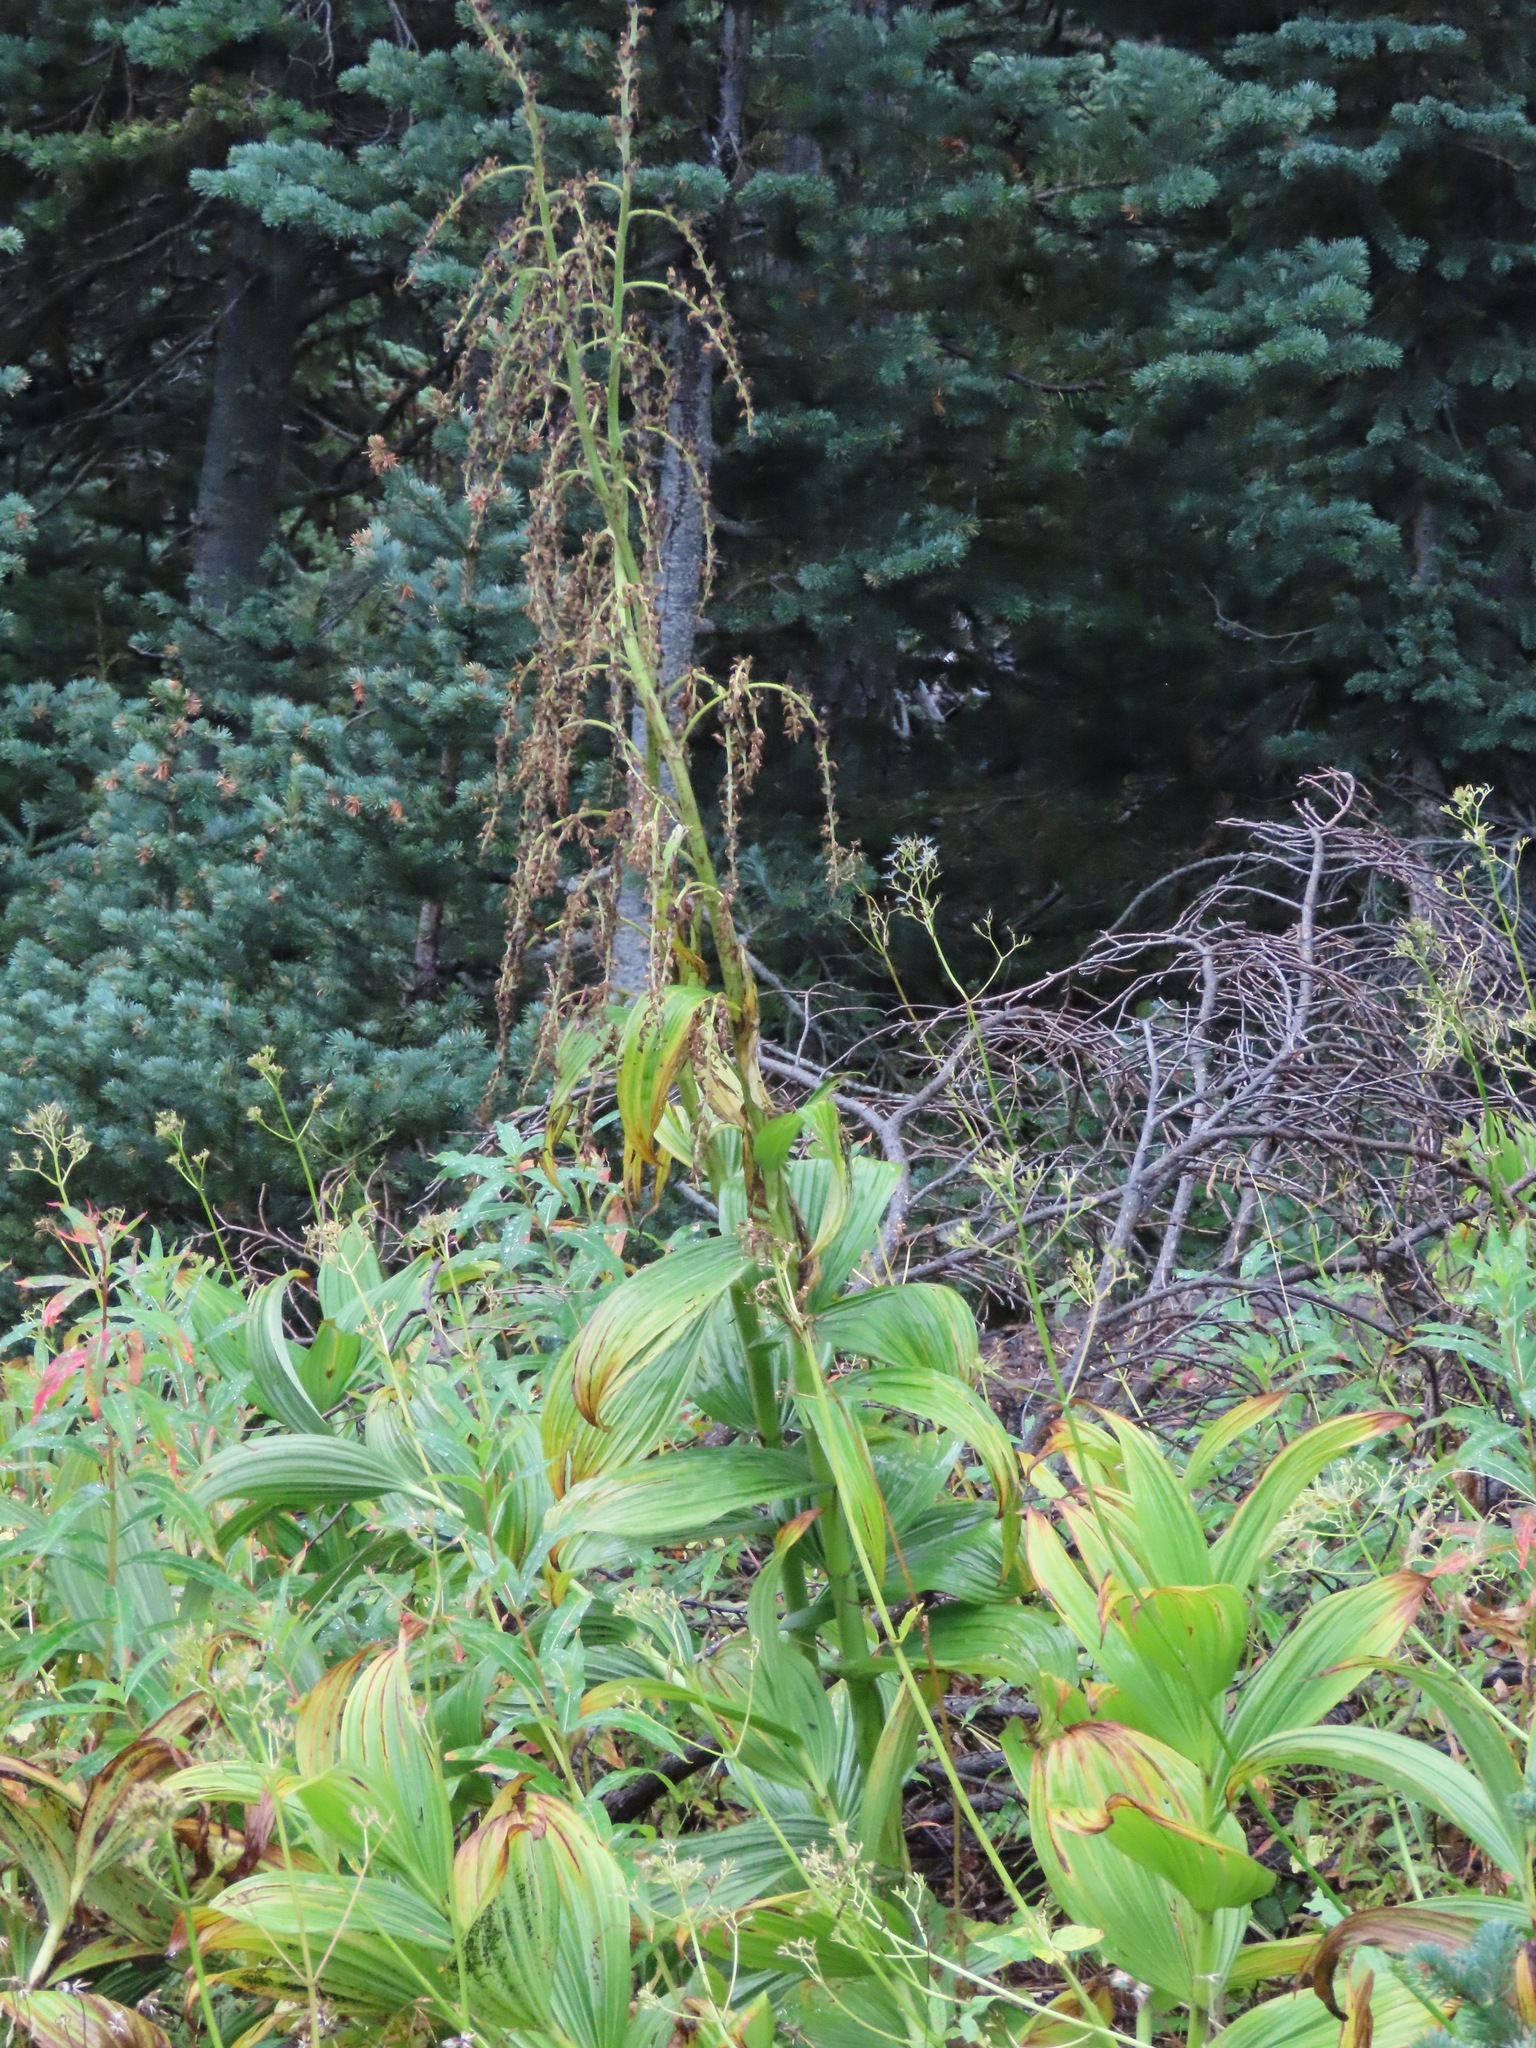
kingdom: Plantae
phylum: Tracheophyta
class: Liliopsida
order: Liliales
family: Melanthiaceae
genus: Veratrum
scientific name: Veratrum viride
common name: American false hellebore
